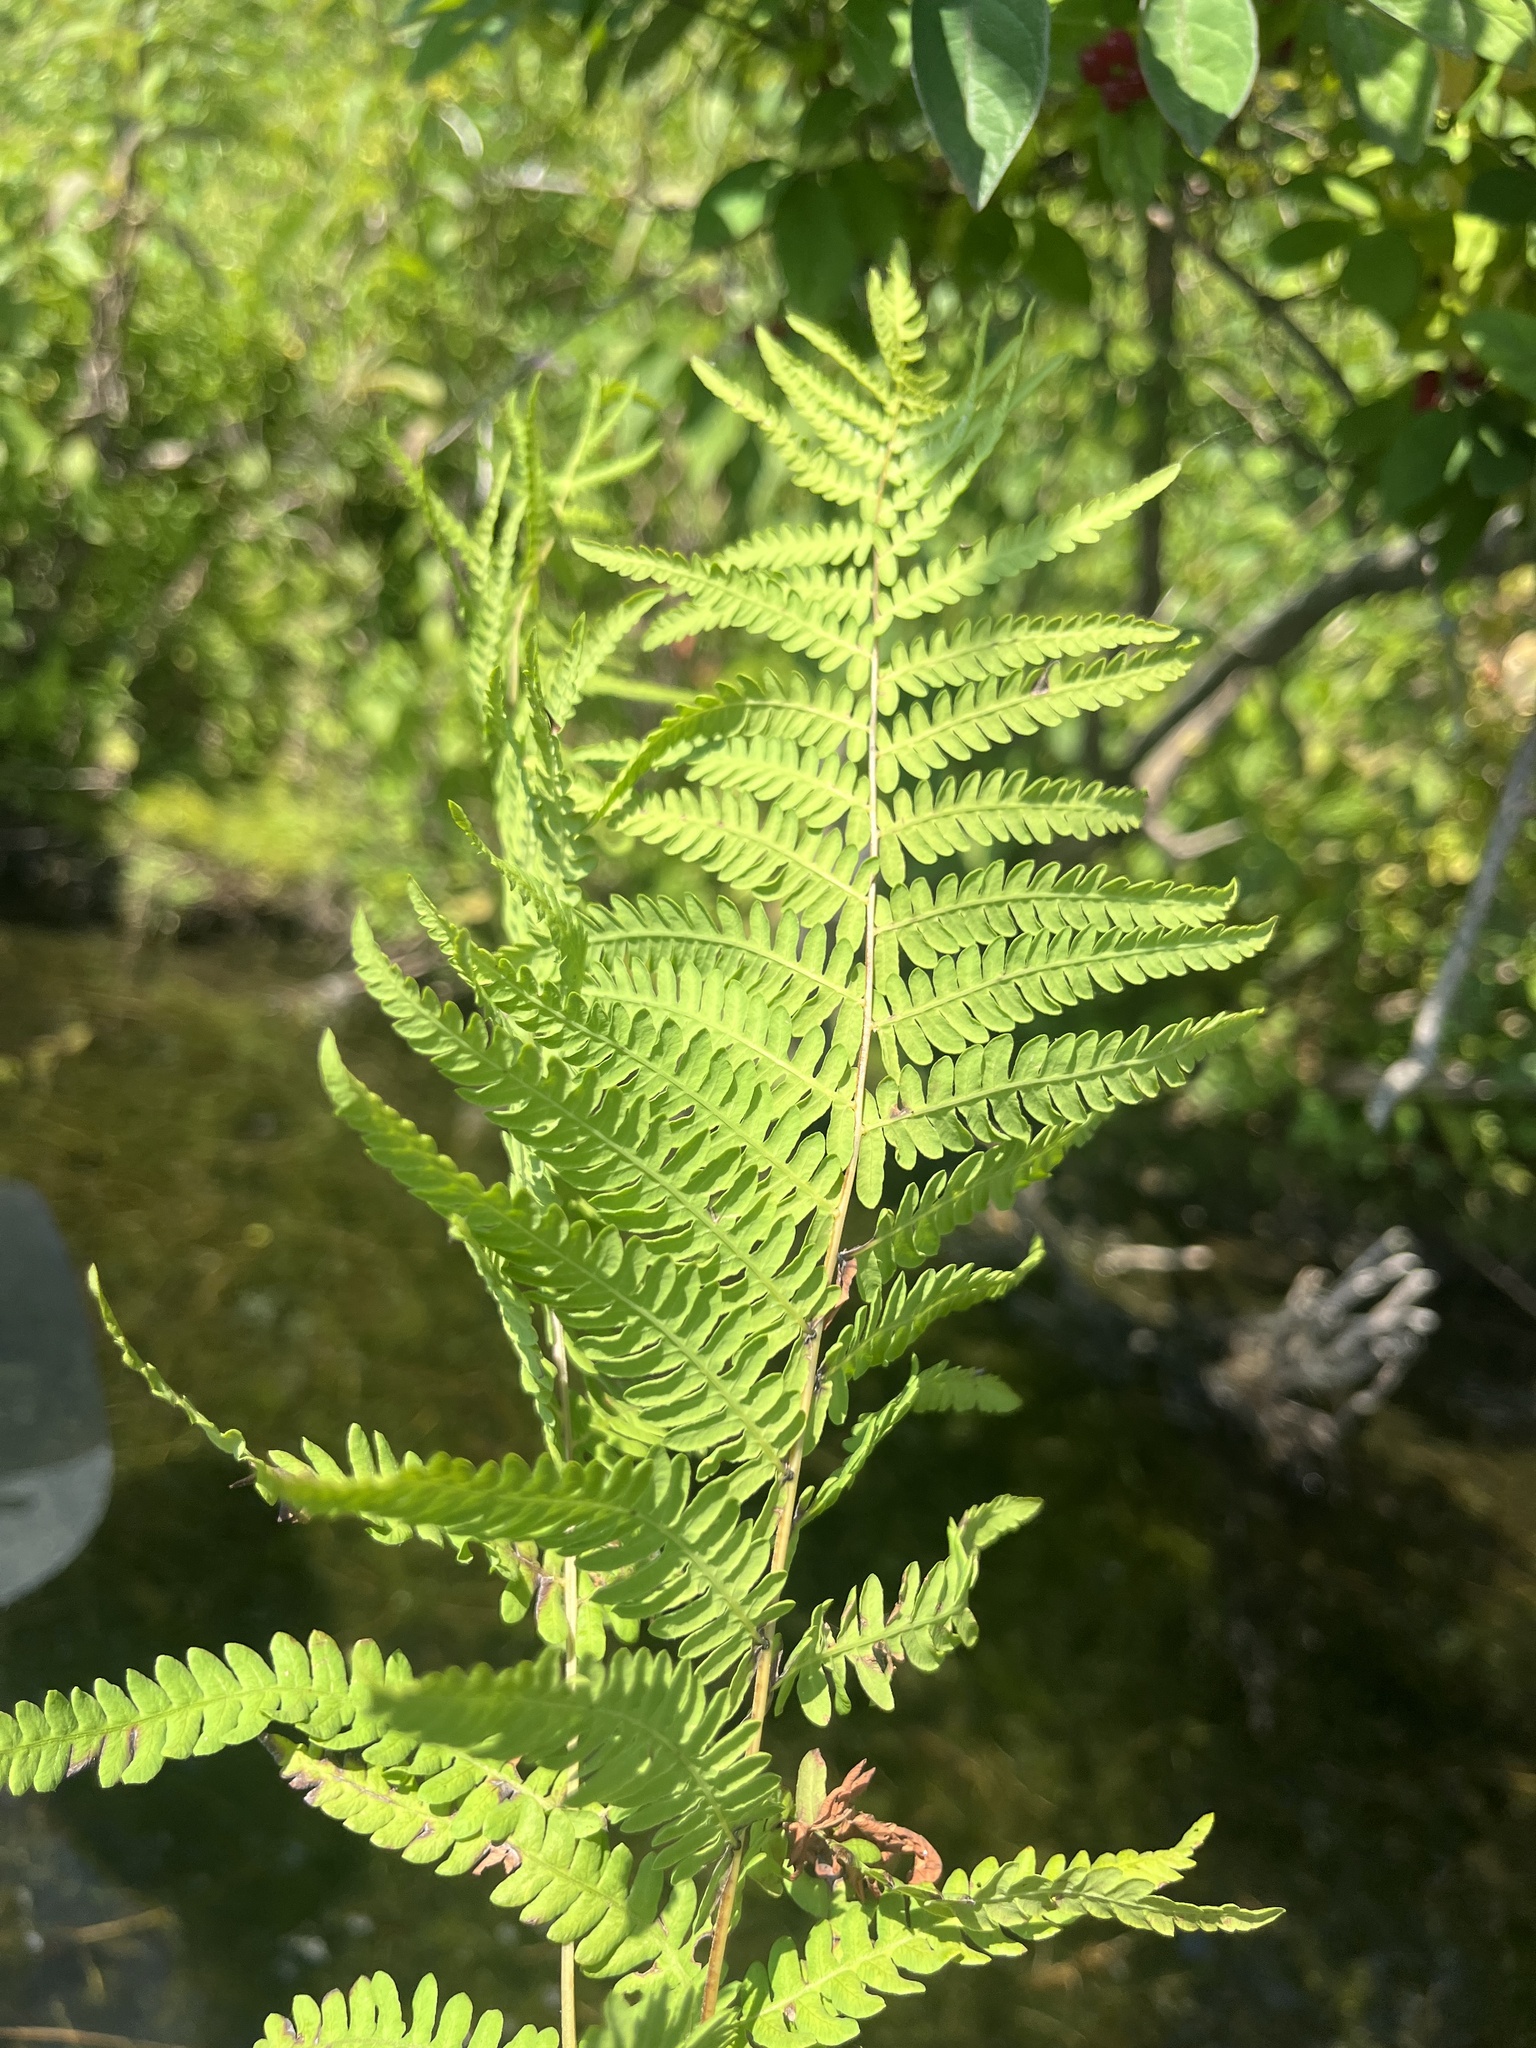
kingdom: Plantae
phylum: Tracheophyta
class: Polypodiopsida
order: Polypodiales
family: Thelypteridaceae
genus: Thelypteris
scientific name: Thelypteris palustris
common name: Marsh fern
